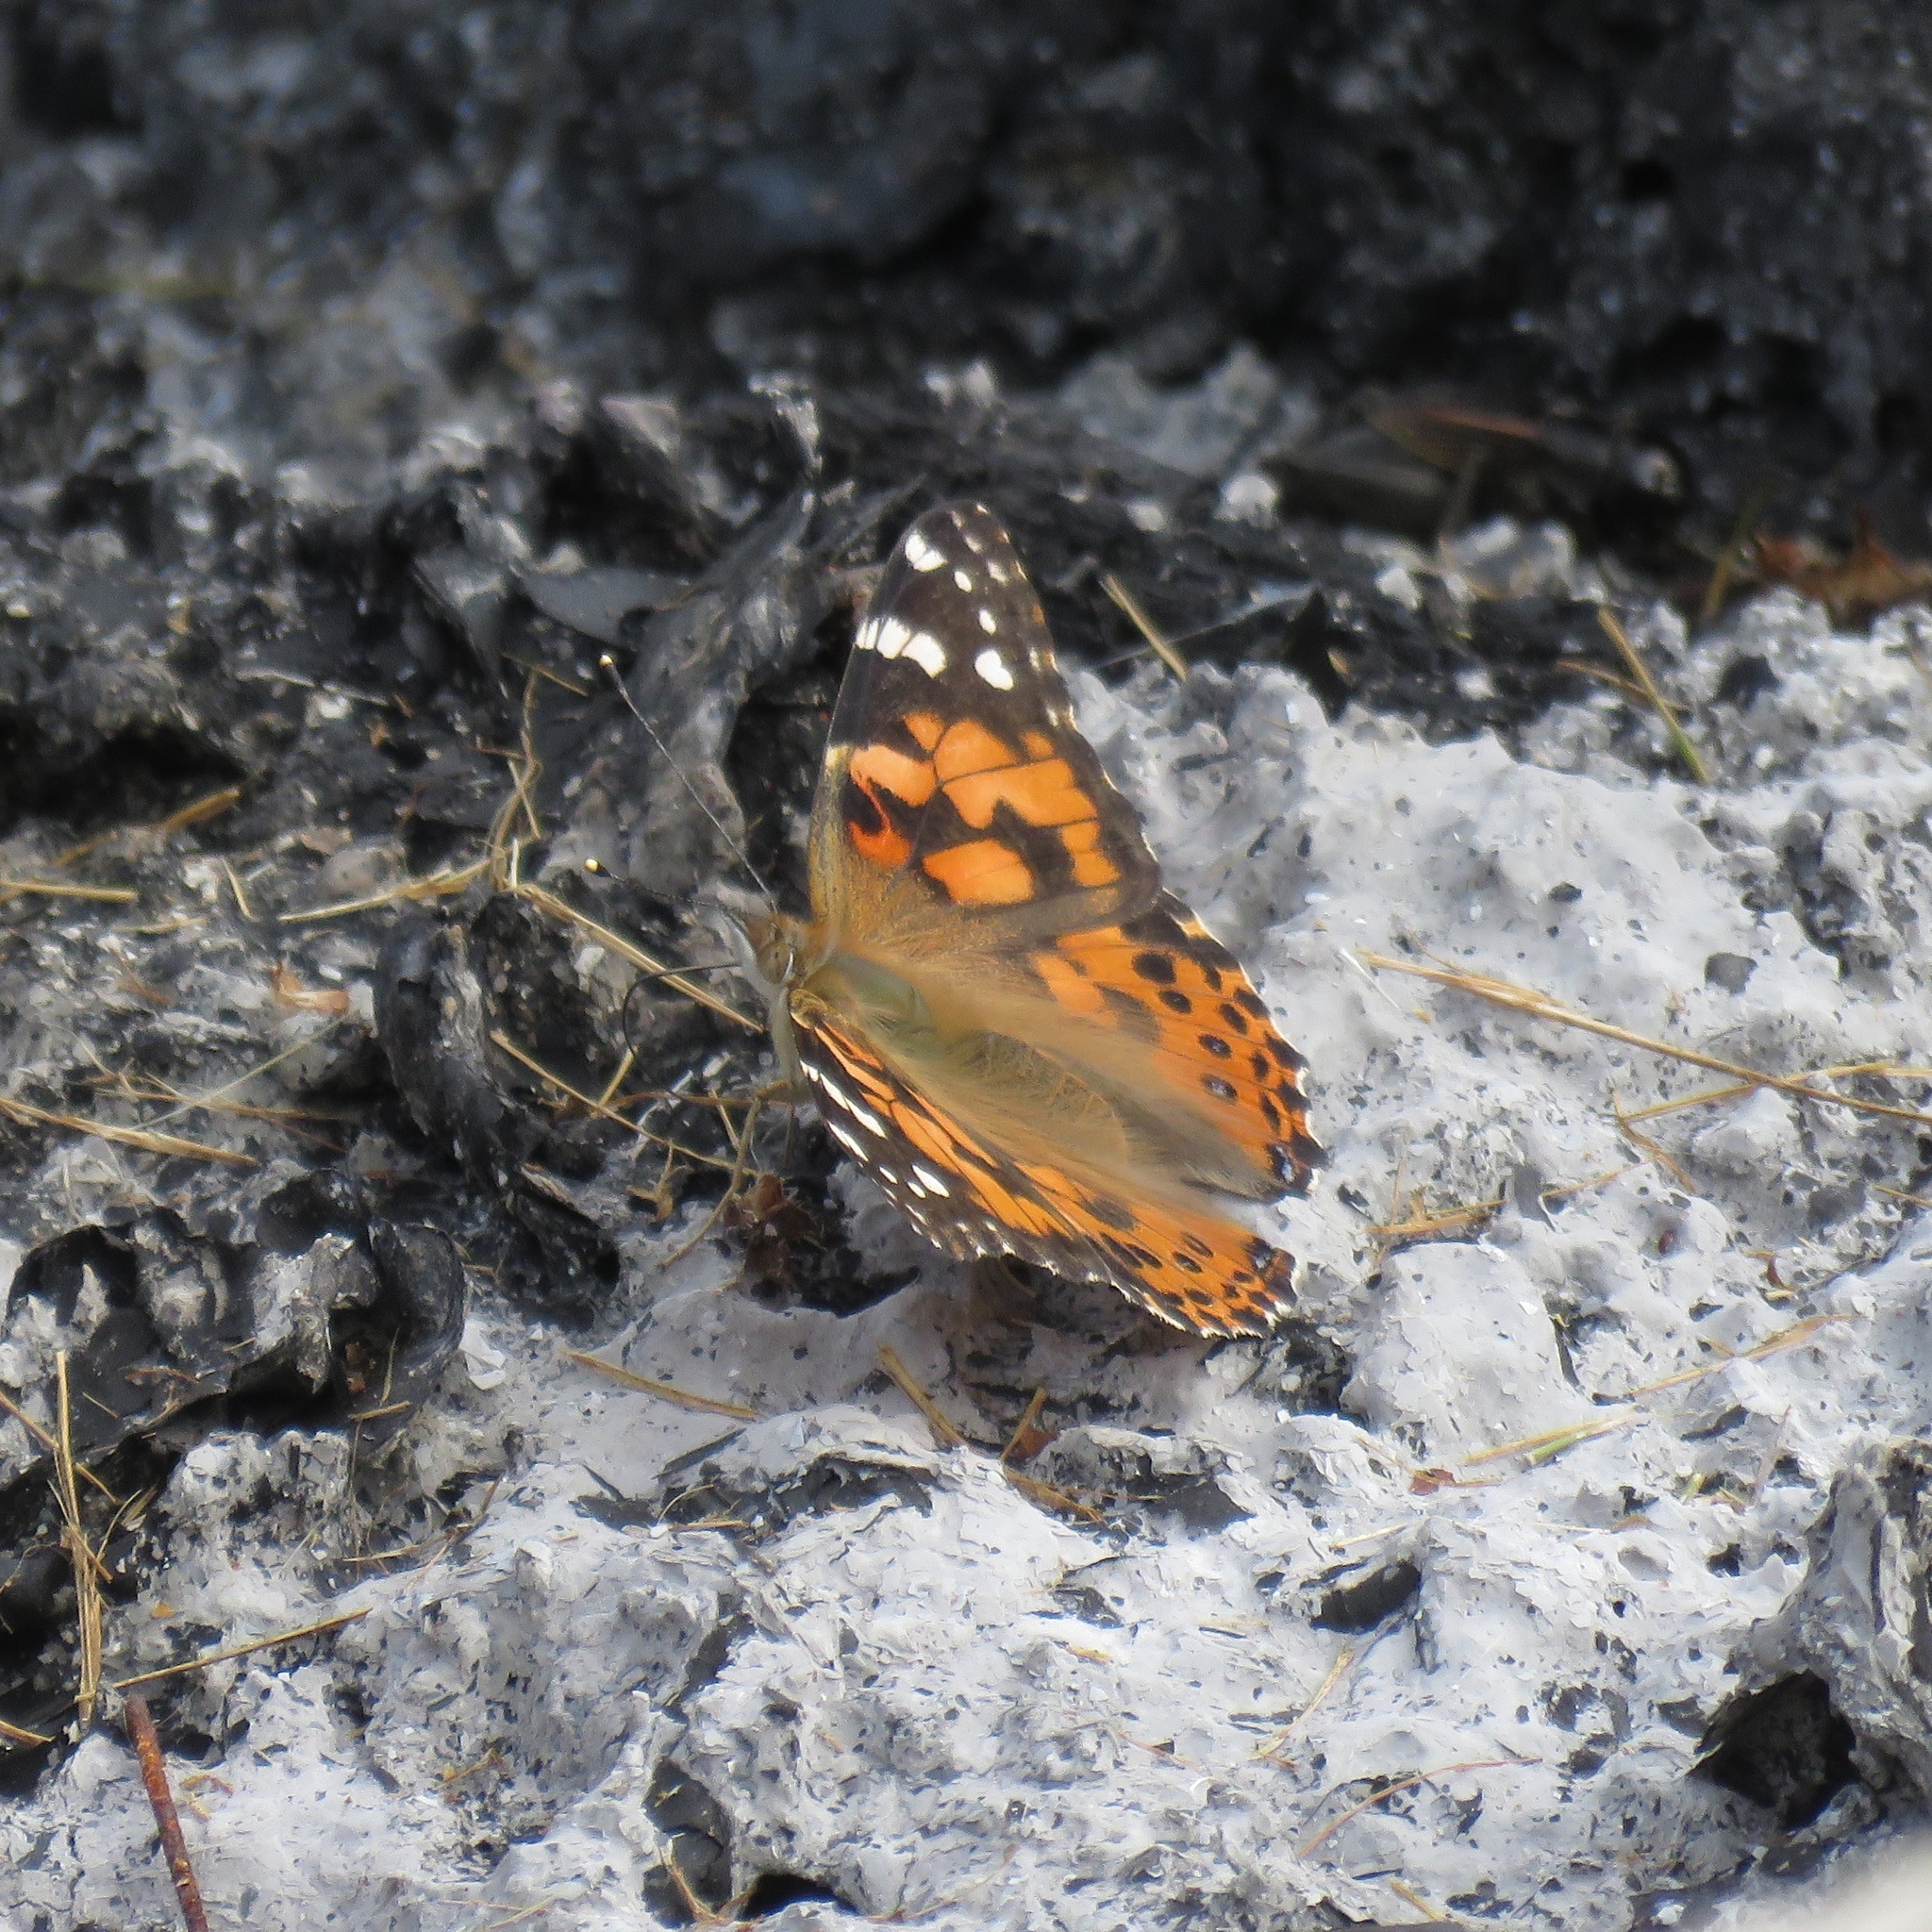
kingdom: Animalia
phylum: Arthropoda
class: Insecta
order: Lepidoptera
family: Nymphalidae
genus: Vanessa
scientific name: Vanessa cardui
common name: Painted lady
